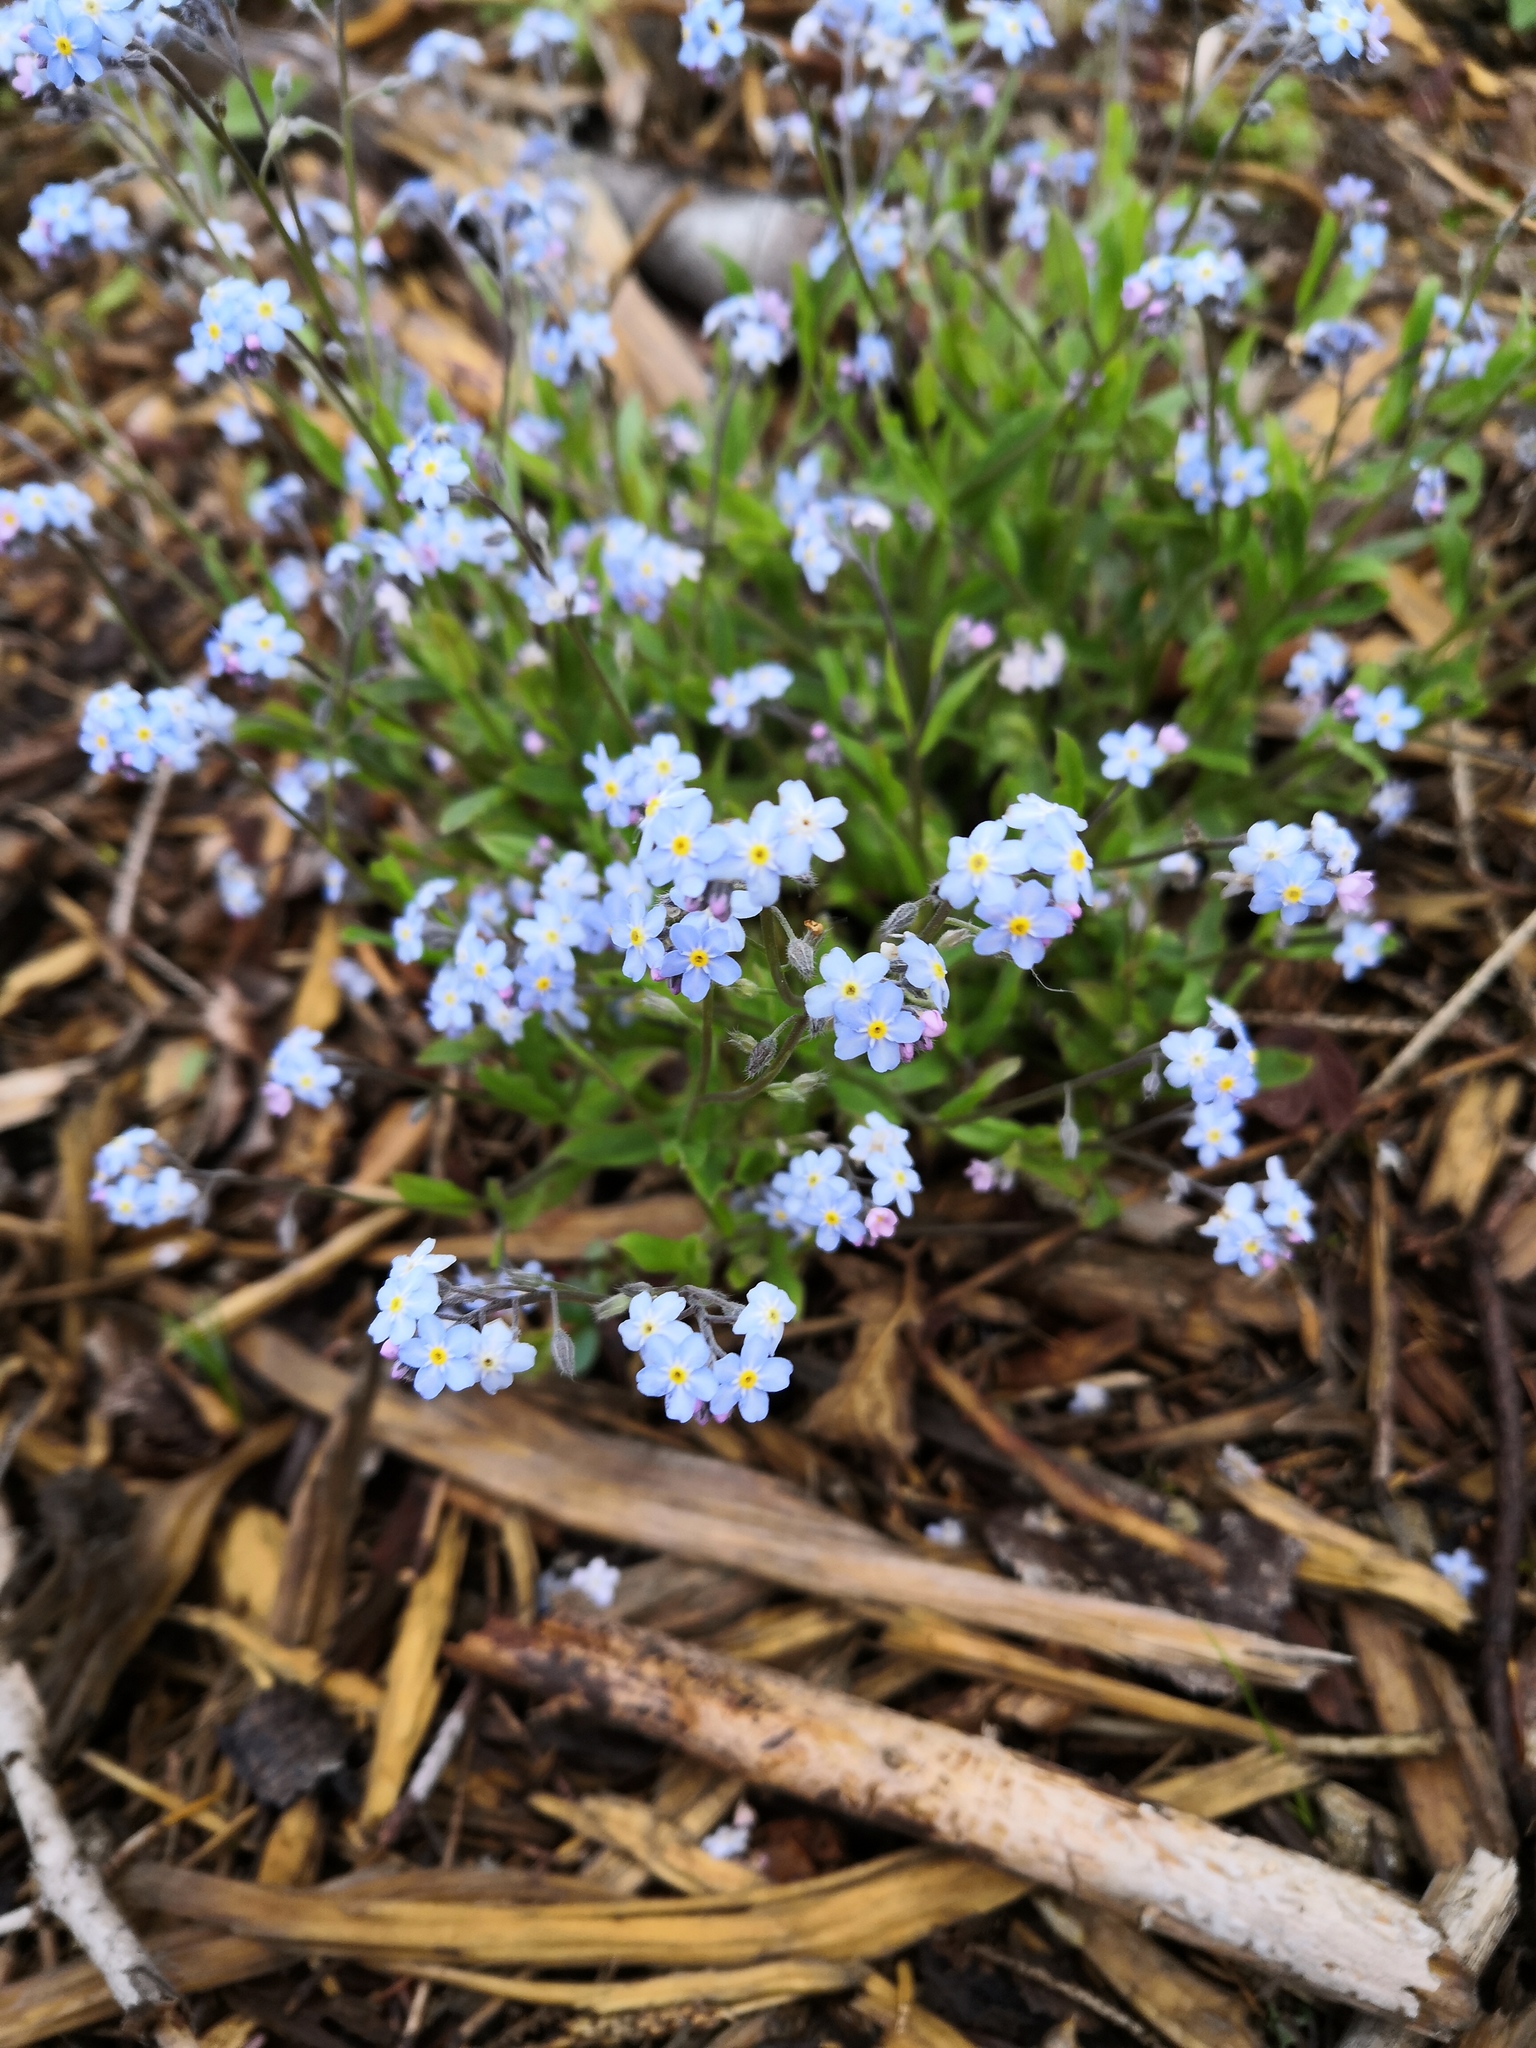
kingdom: Plantae
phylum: Tracheophyta
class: Magnoliopsida
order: Boraginales
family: Boraginaceae
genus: Myosotis
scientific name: Myosotis sylvatica
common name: Wood forget-me-not
